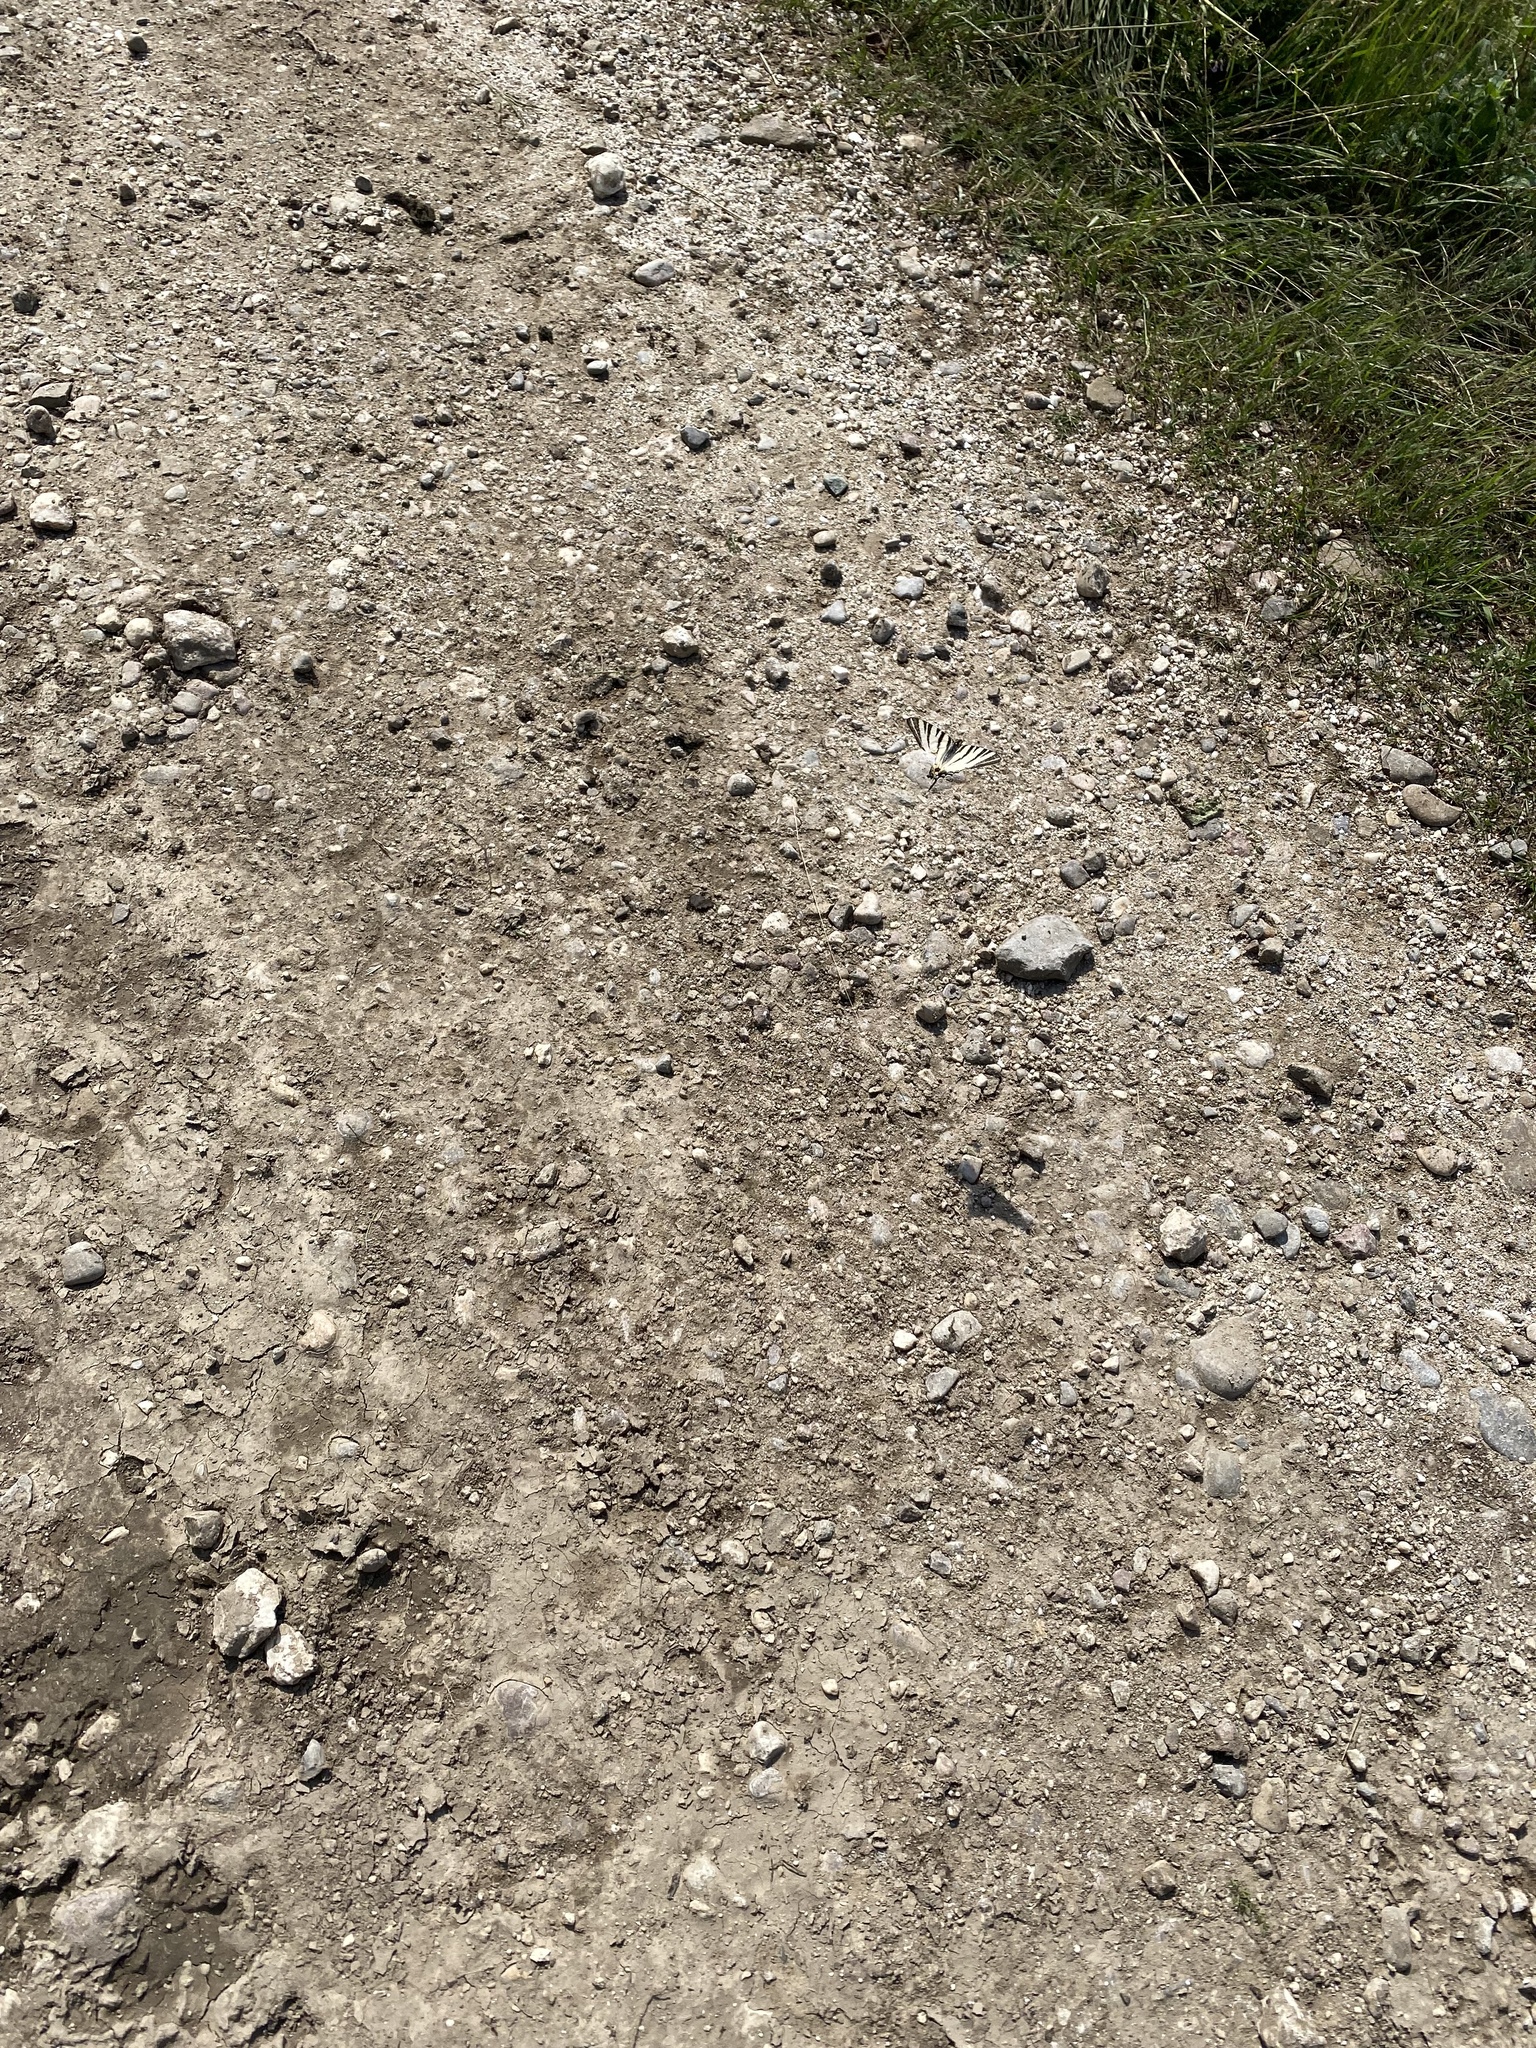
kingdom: Animalia
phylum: Arthropoda
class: Insecta
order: Lepidoptera
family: Papilionidae
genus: Iphiclides
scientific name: Iphiclides podalirius
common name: Scarce swallowtail
